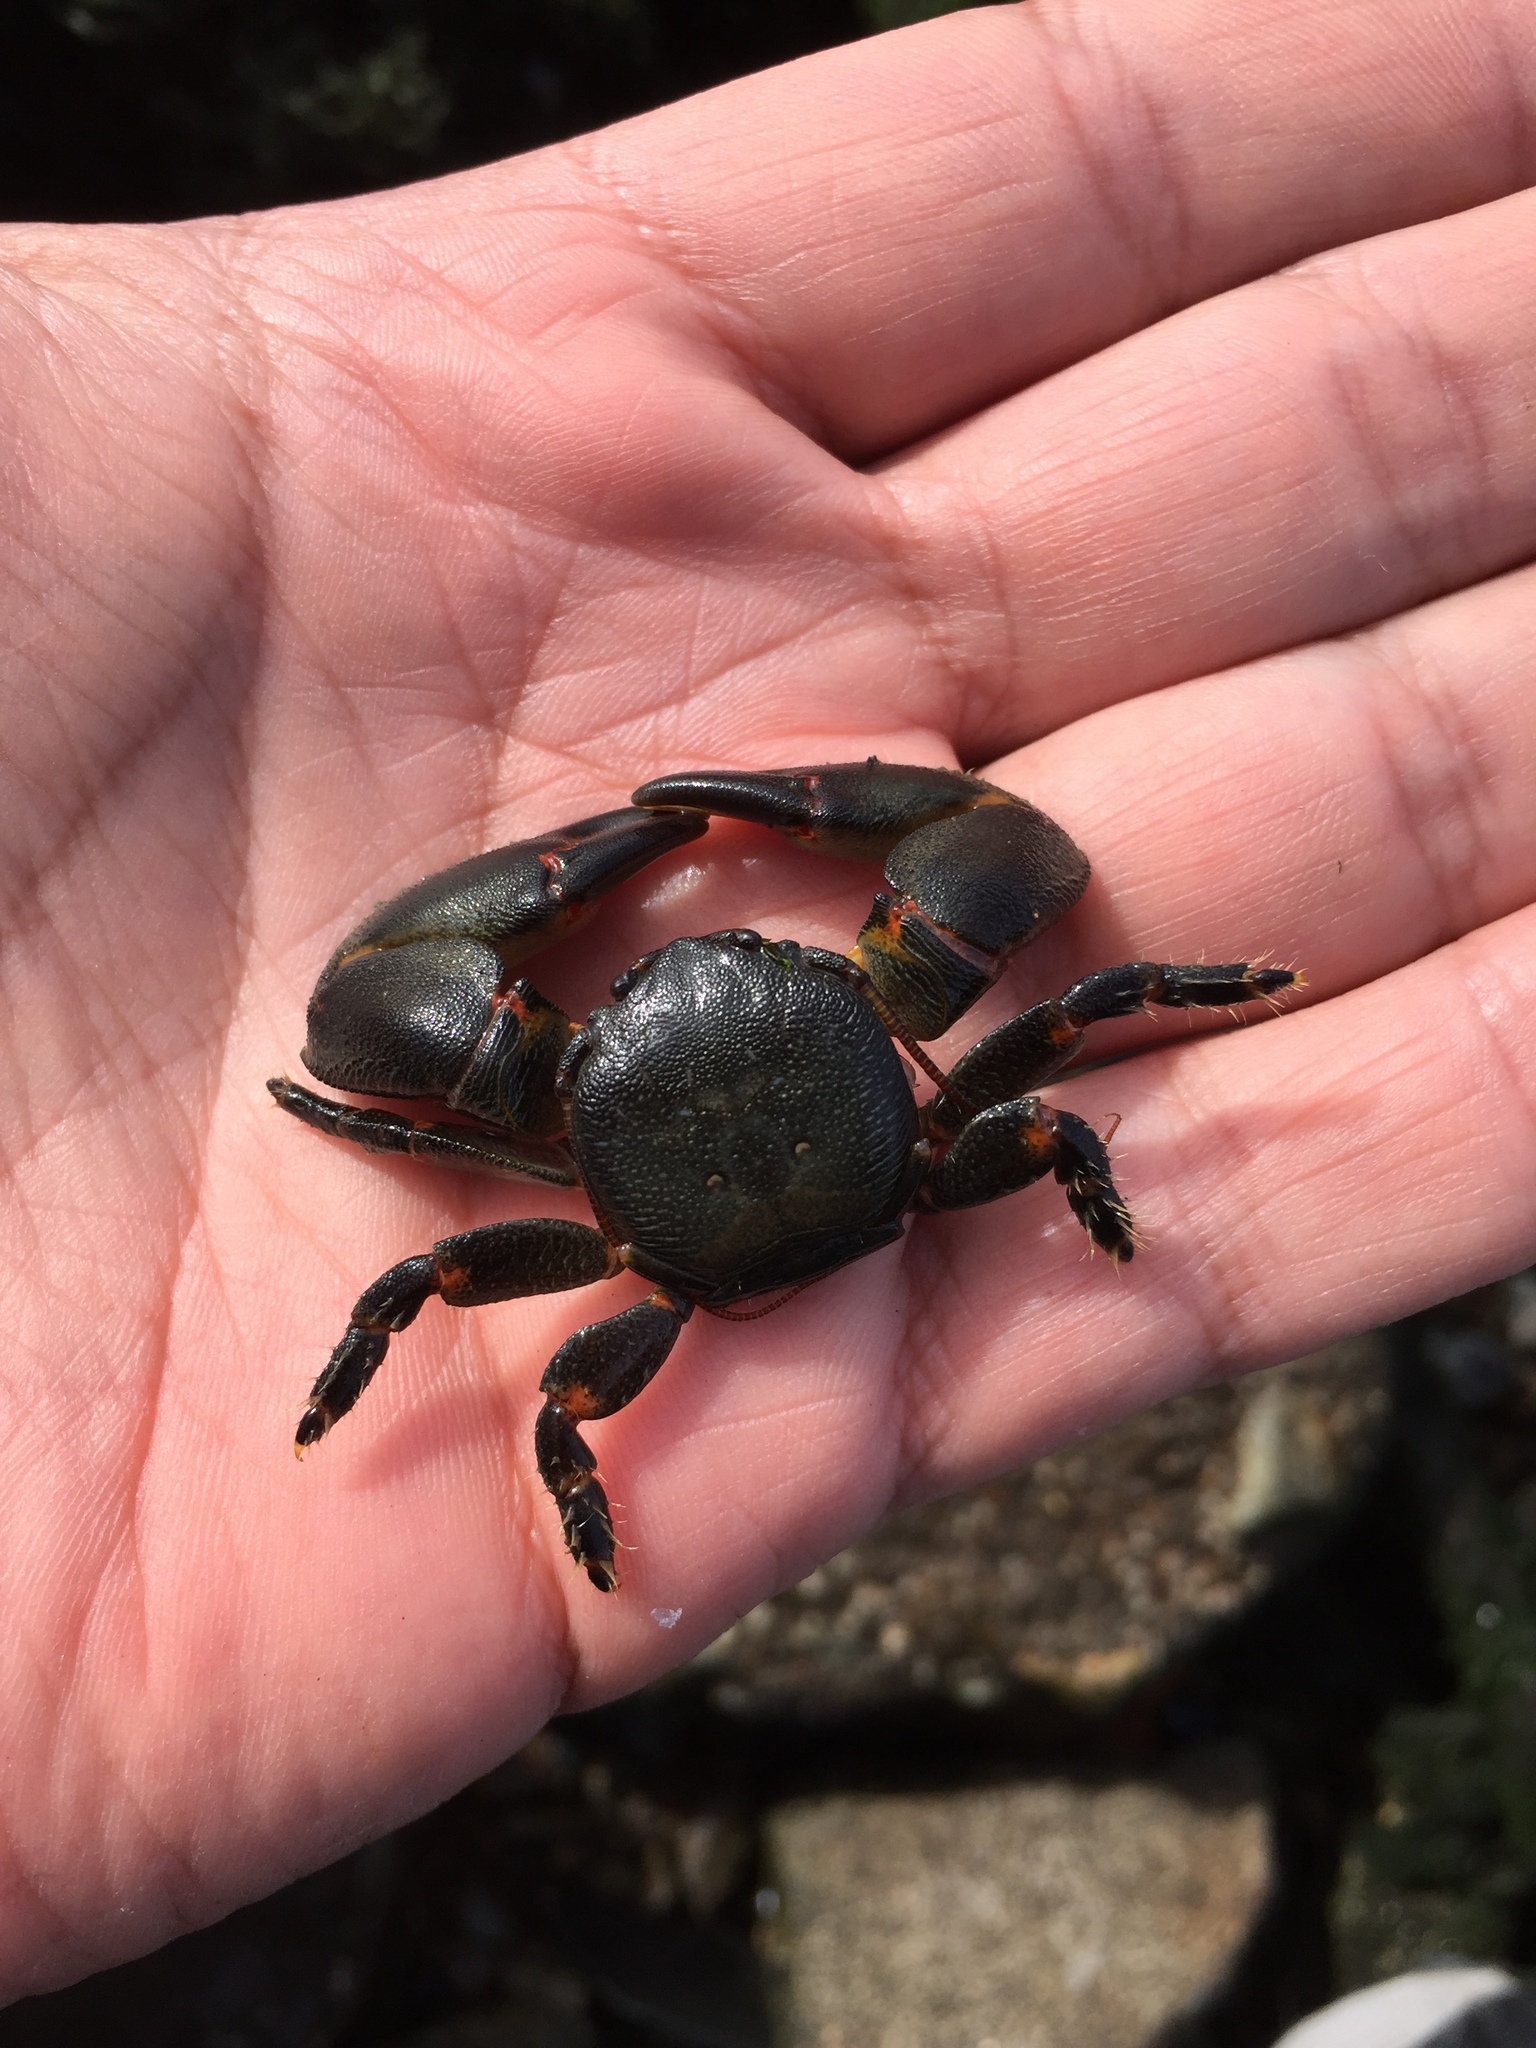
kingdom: Animalia
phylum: Arthropoda
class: Malacostraca
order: Decapoda
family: Porcellanidae
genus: Petrolisthes
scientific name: Petrolisthes laevigatus
